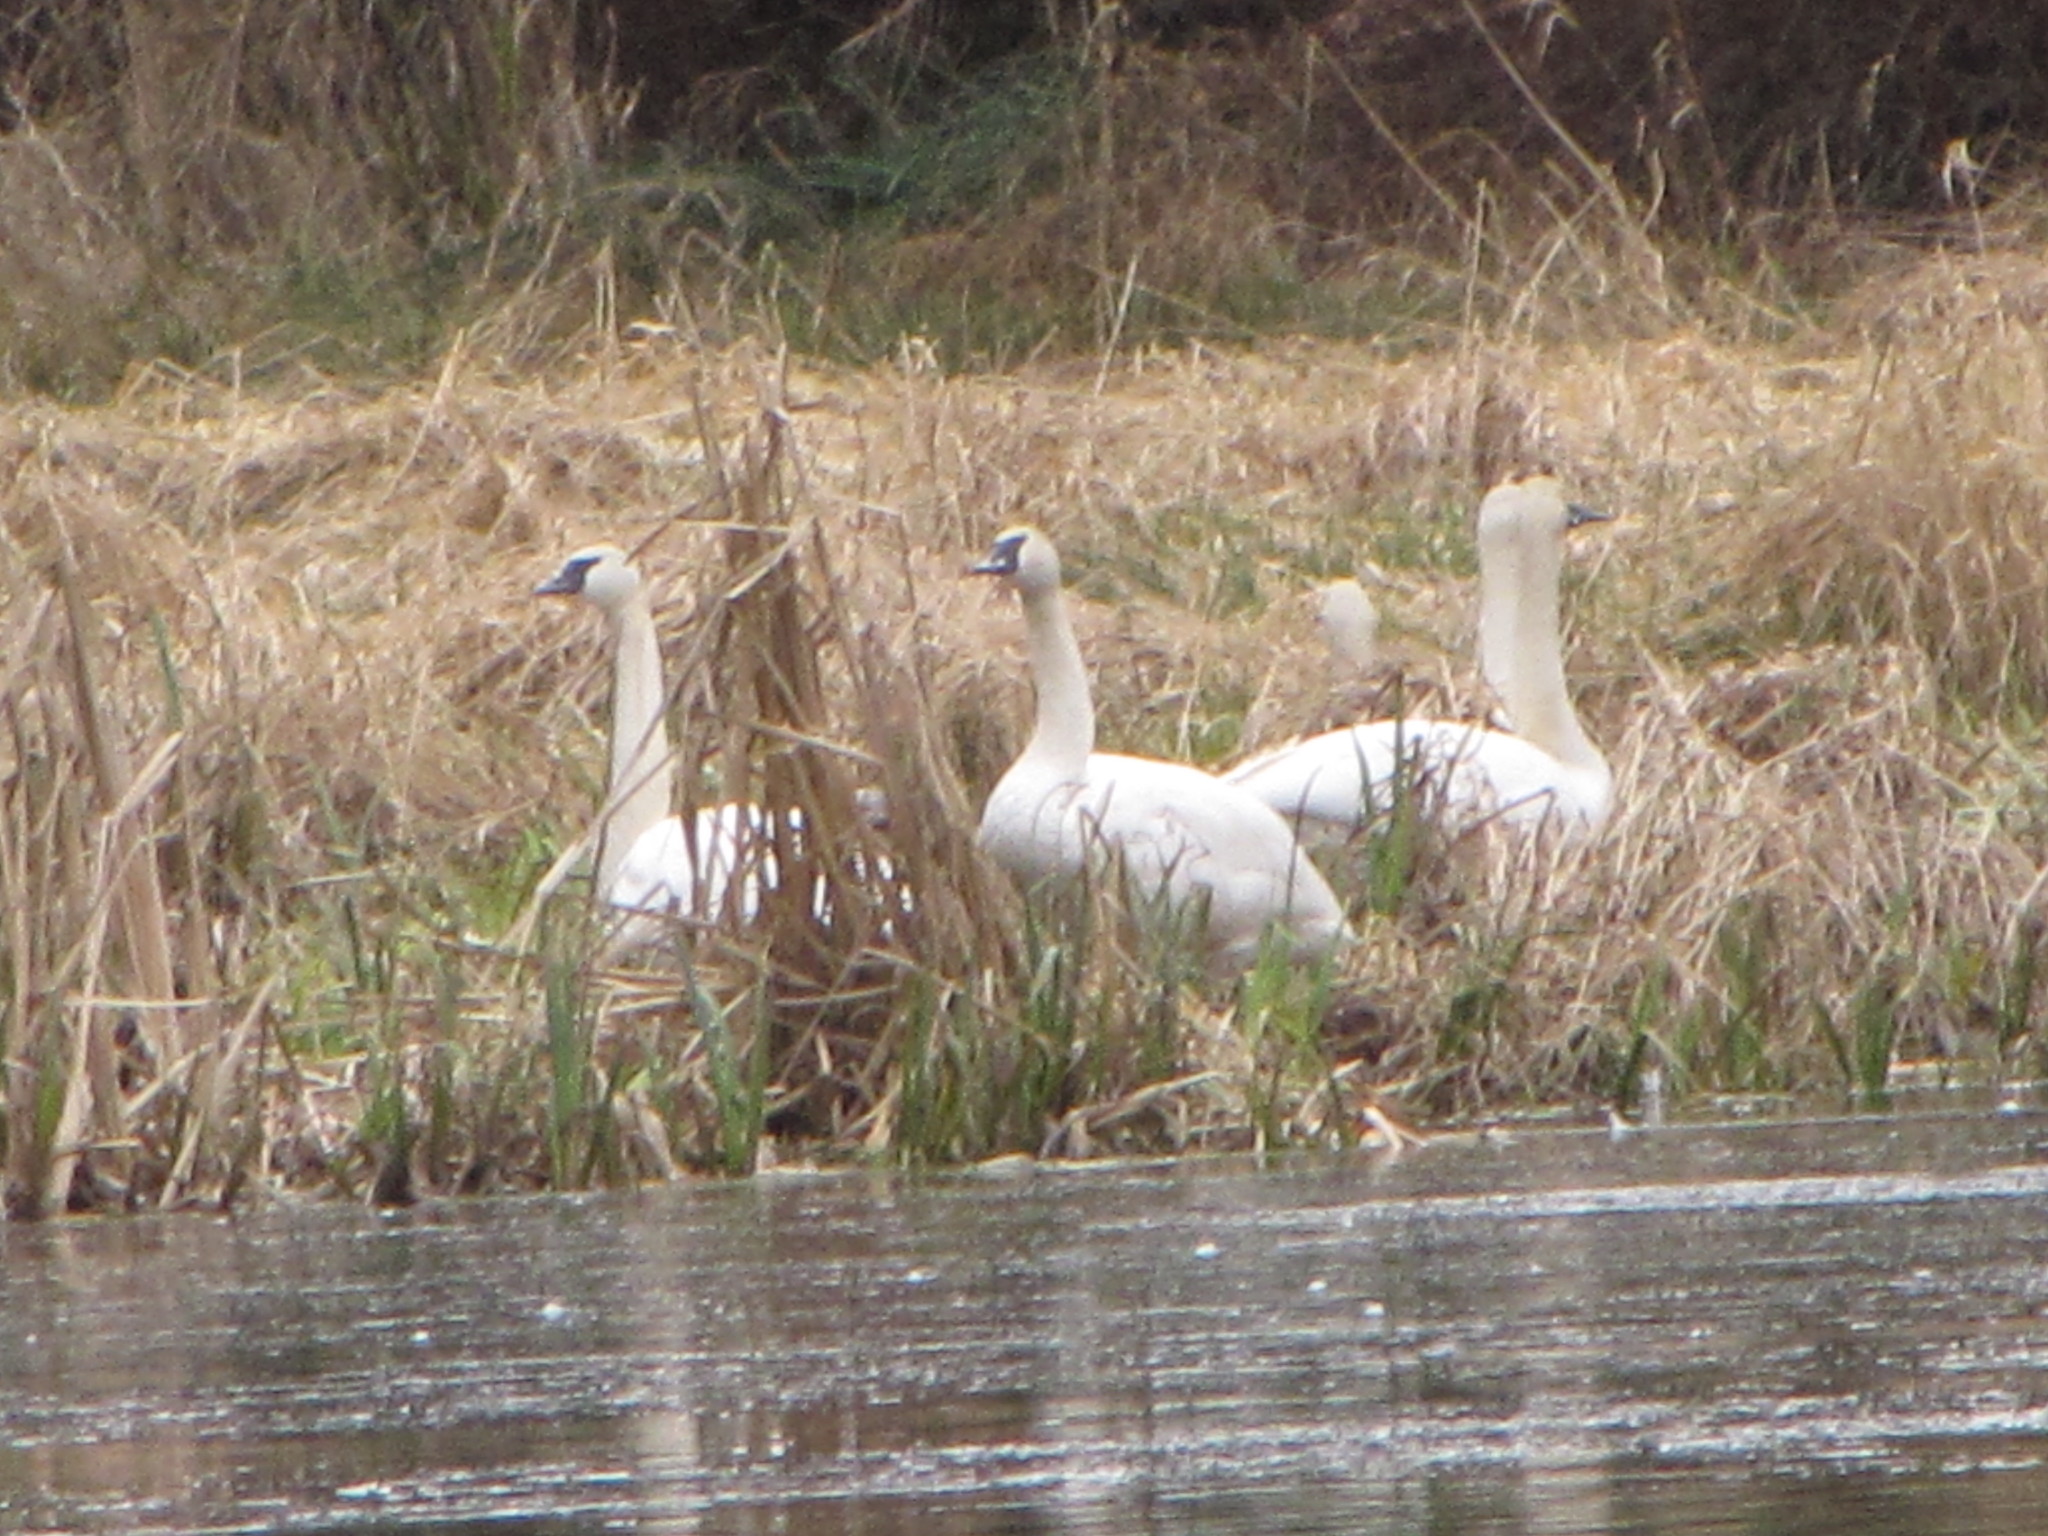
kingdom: Animalia
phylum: Chordata
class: Aves
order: Anseriformes
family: Anatidae
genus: Cygnus
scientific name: Cygnus buccinator
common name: Trumpeter swan
